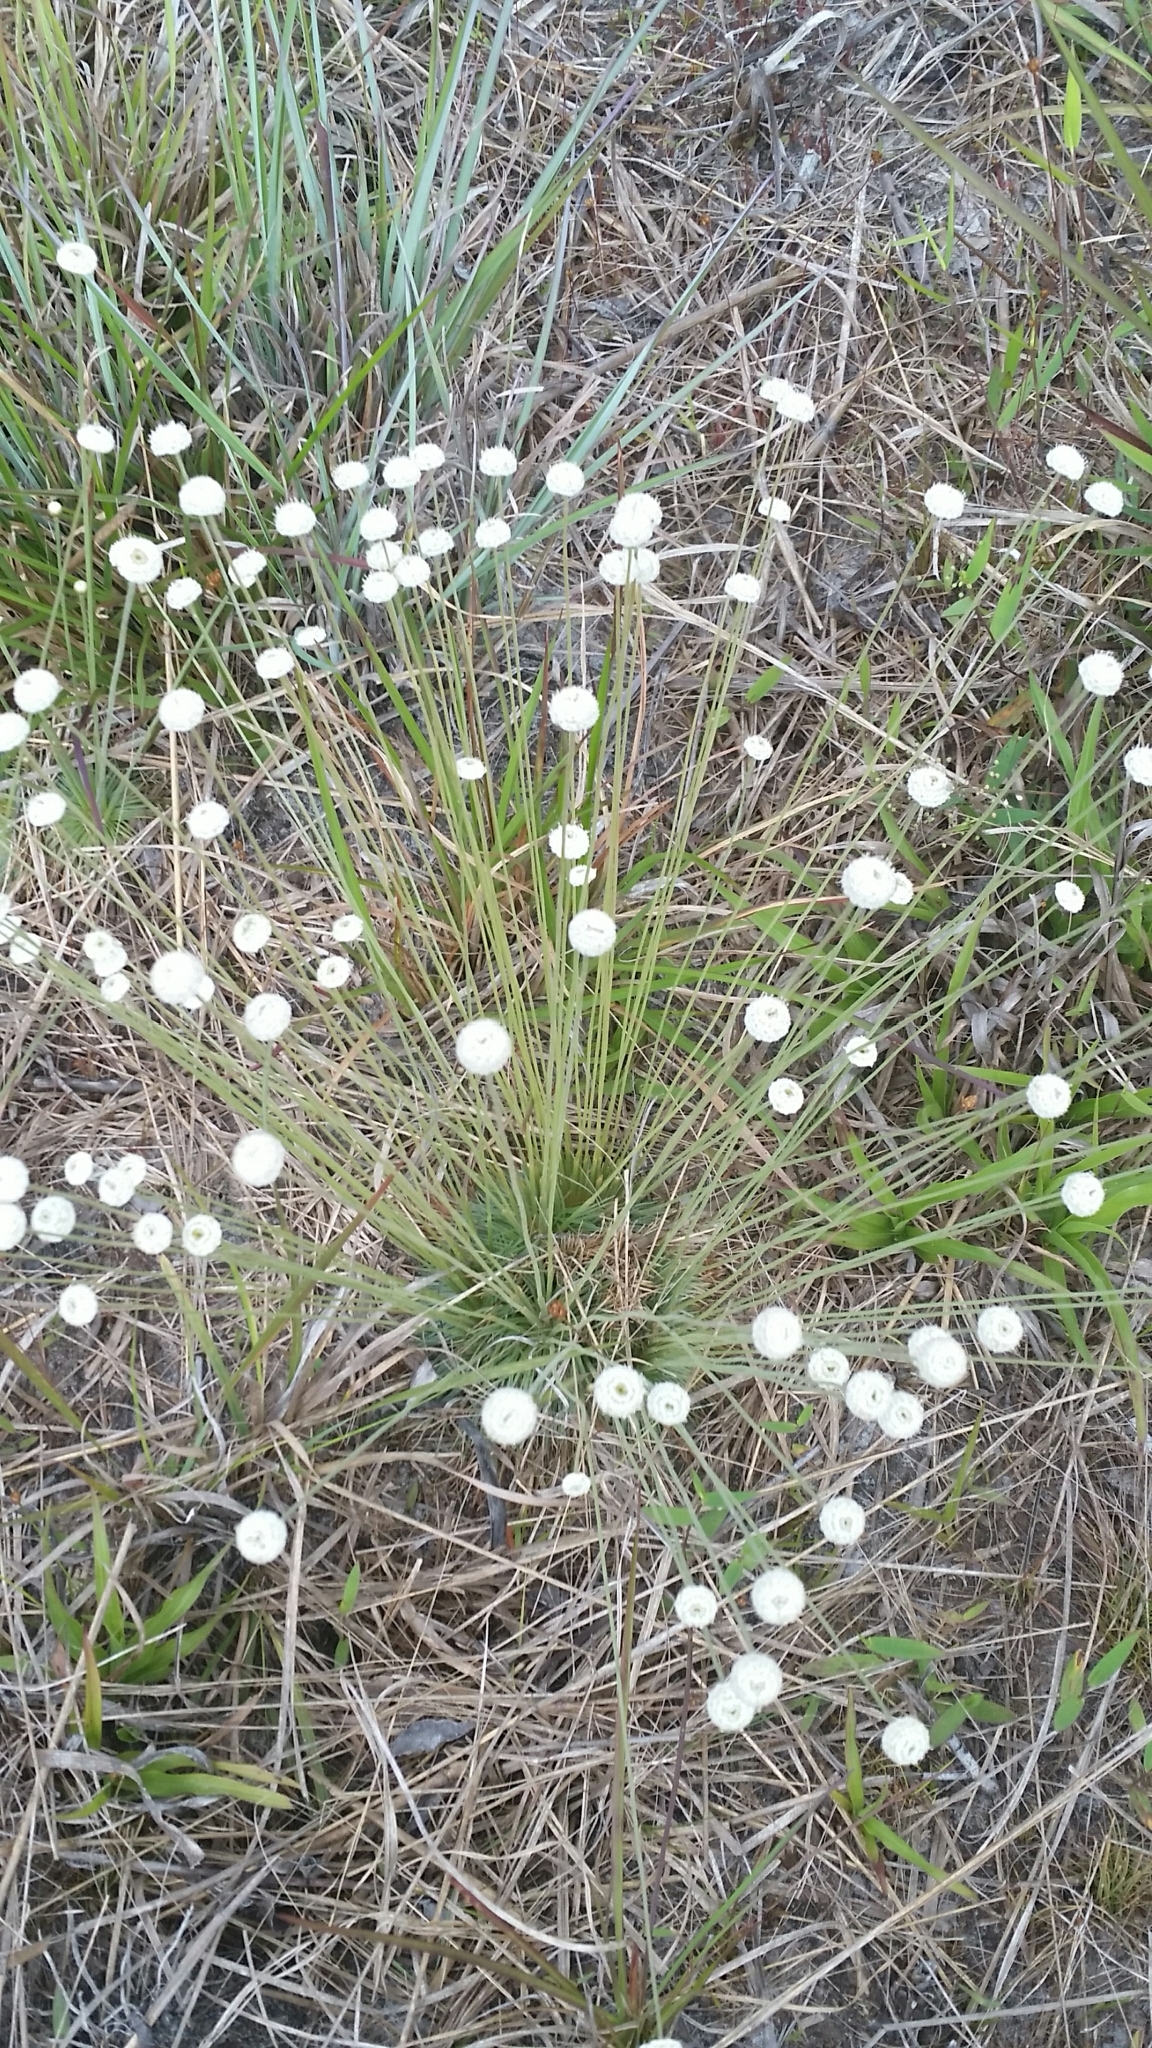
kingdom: Plantae
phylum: Tracheophyta
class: Liliopsida
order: Poales
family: Eriocaulaceae
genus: Syngonanthus
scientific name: Syngonanthus flavidulus
